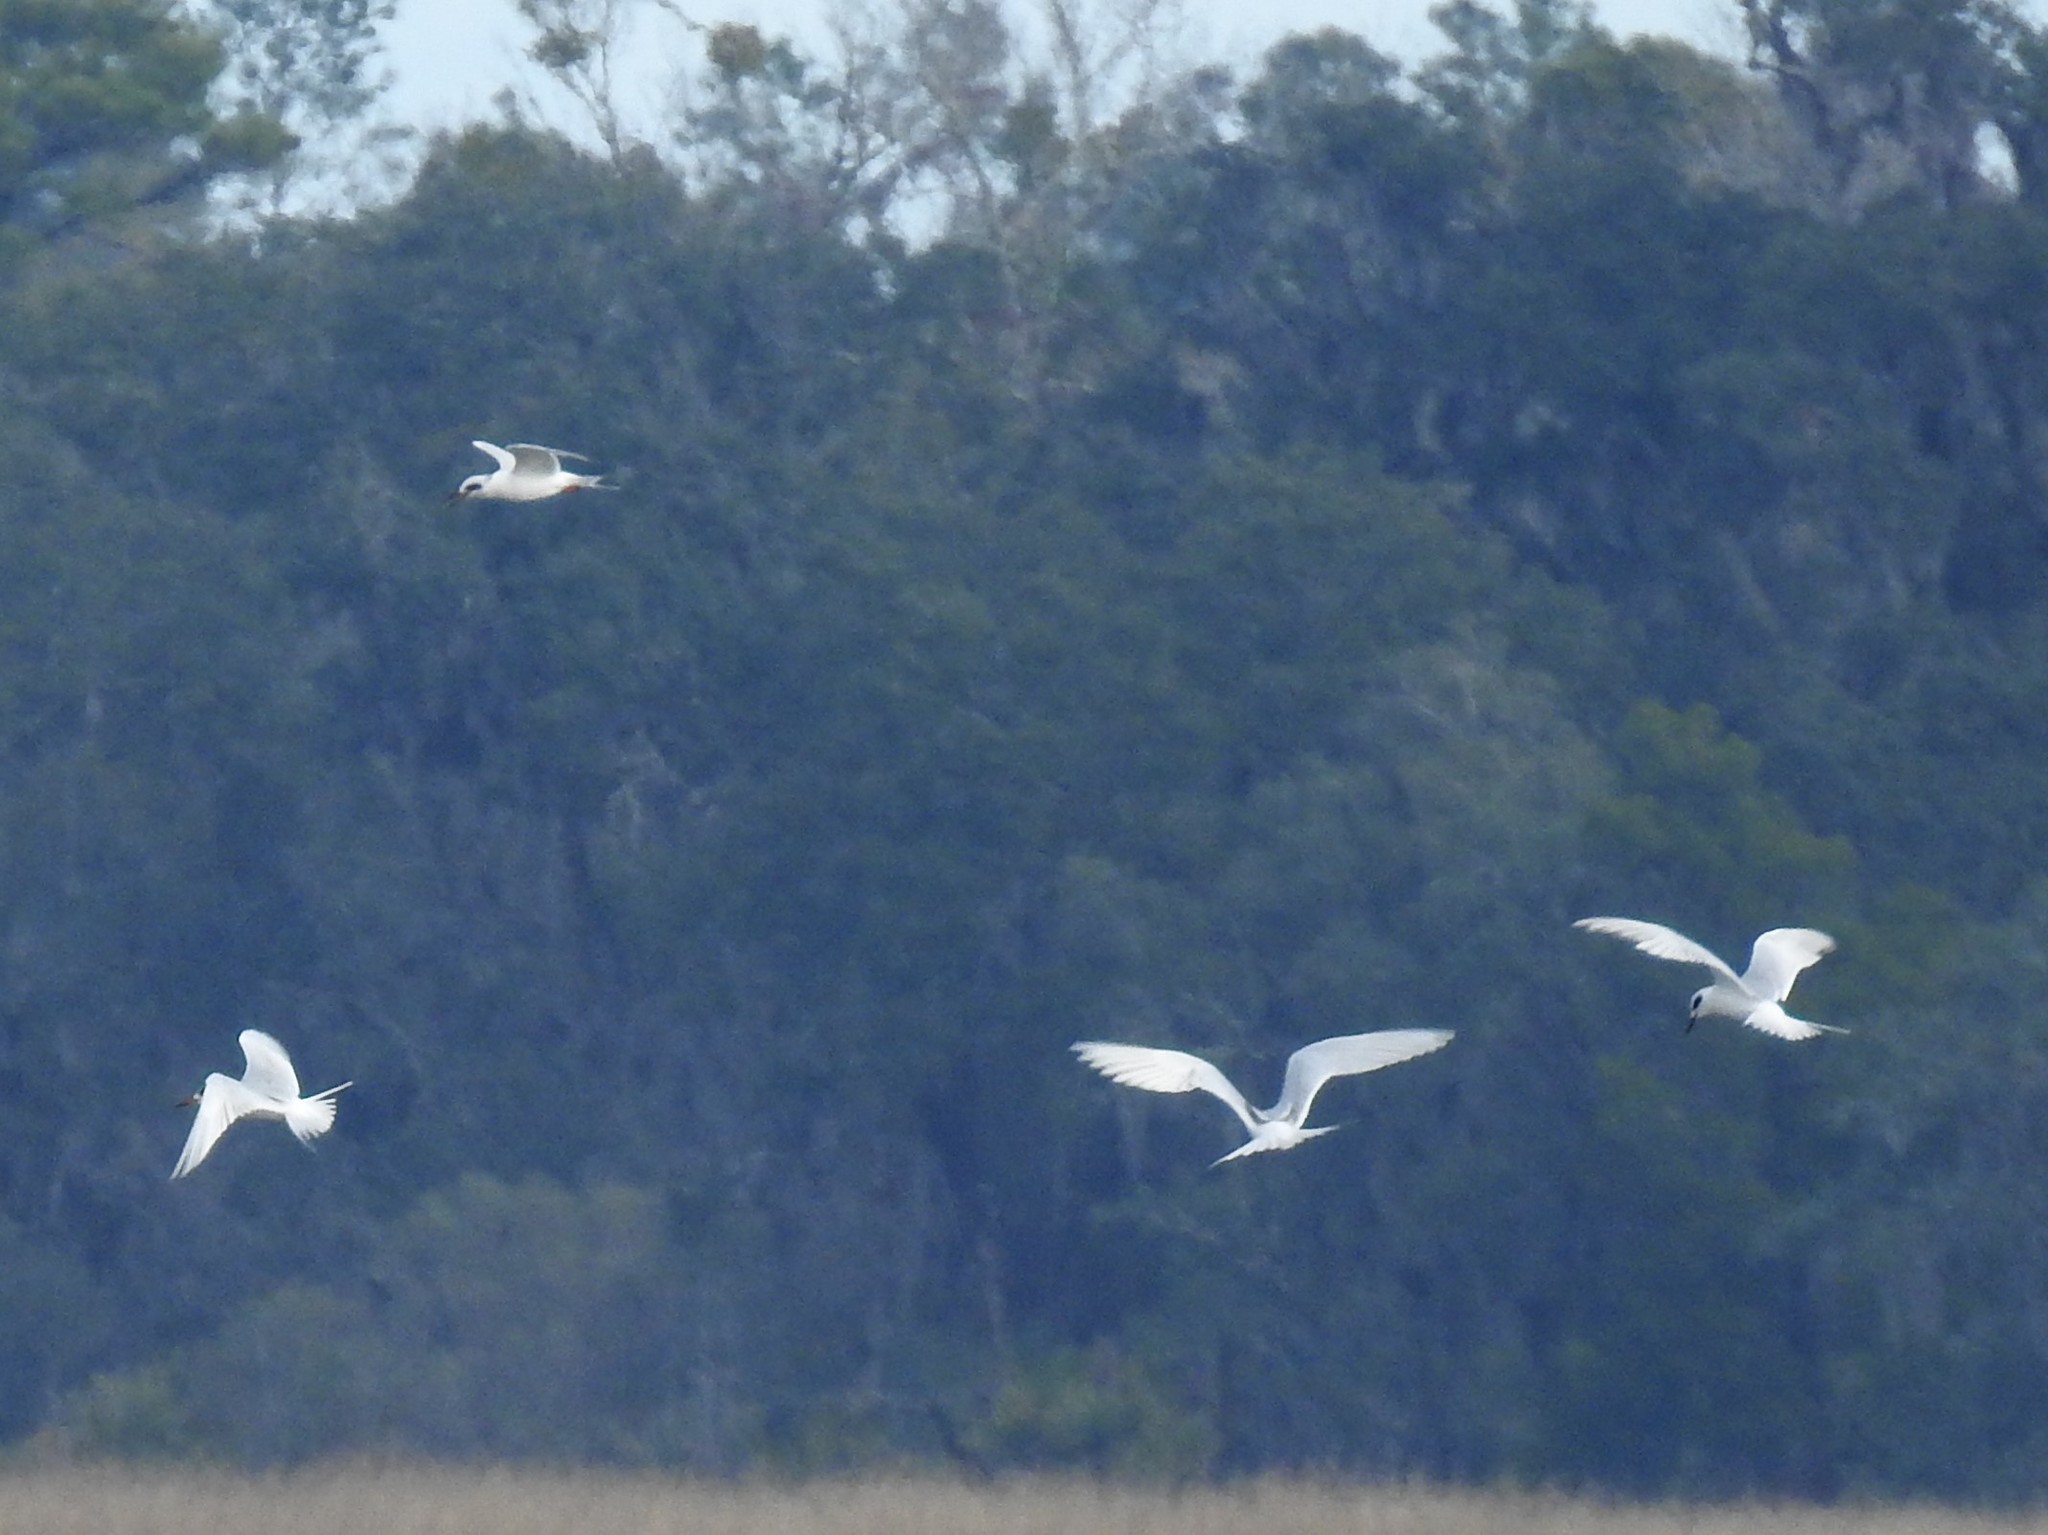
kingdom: Animalia
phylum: Chordata
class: Aves
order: Charadriiformes
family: Laridae
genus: Sterna
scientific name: Sterna forsteri
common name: Forster's tern
